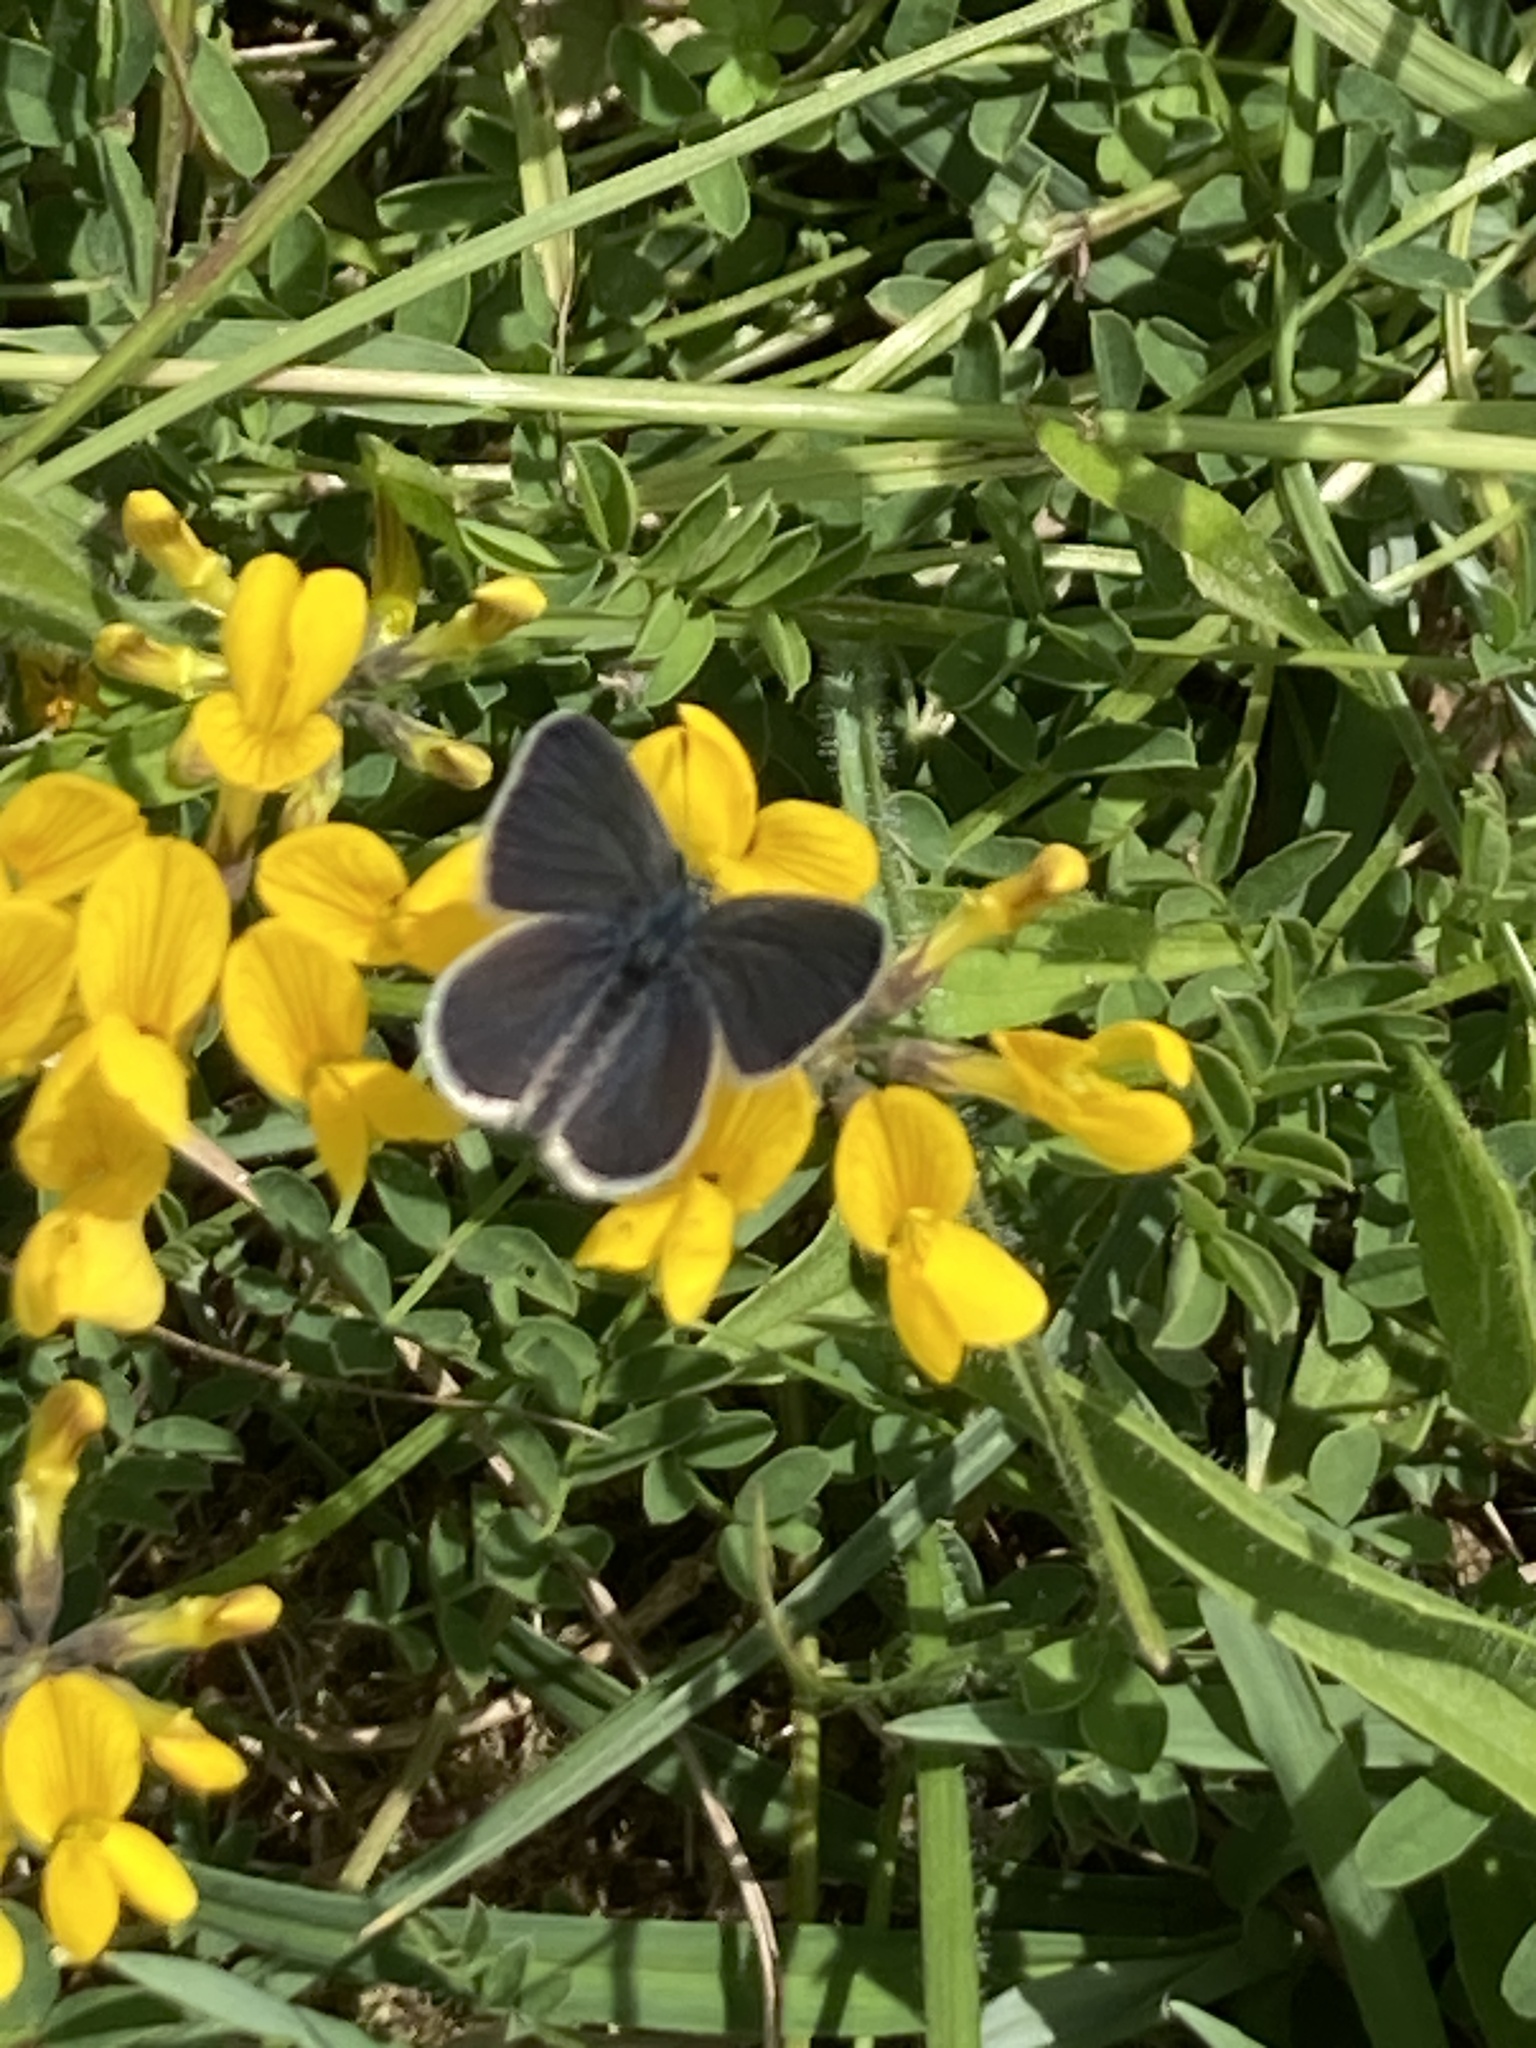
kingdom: Animalia
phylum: Arthropoda
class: Insecta
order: Lepidoptera
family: Lycaenidae
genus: Cupido
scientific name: Cupido minimus
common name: Small blue
